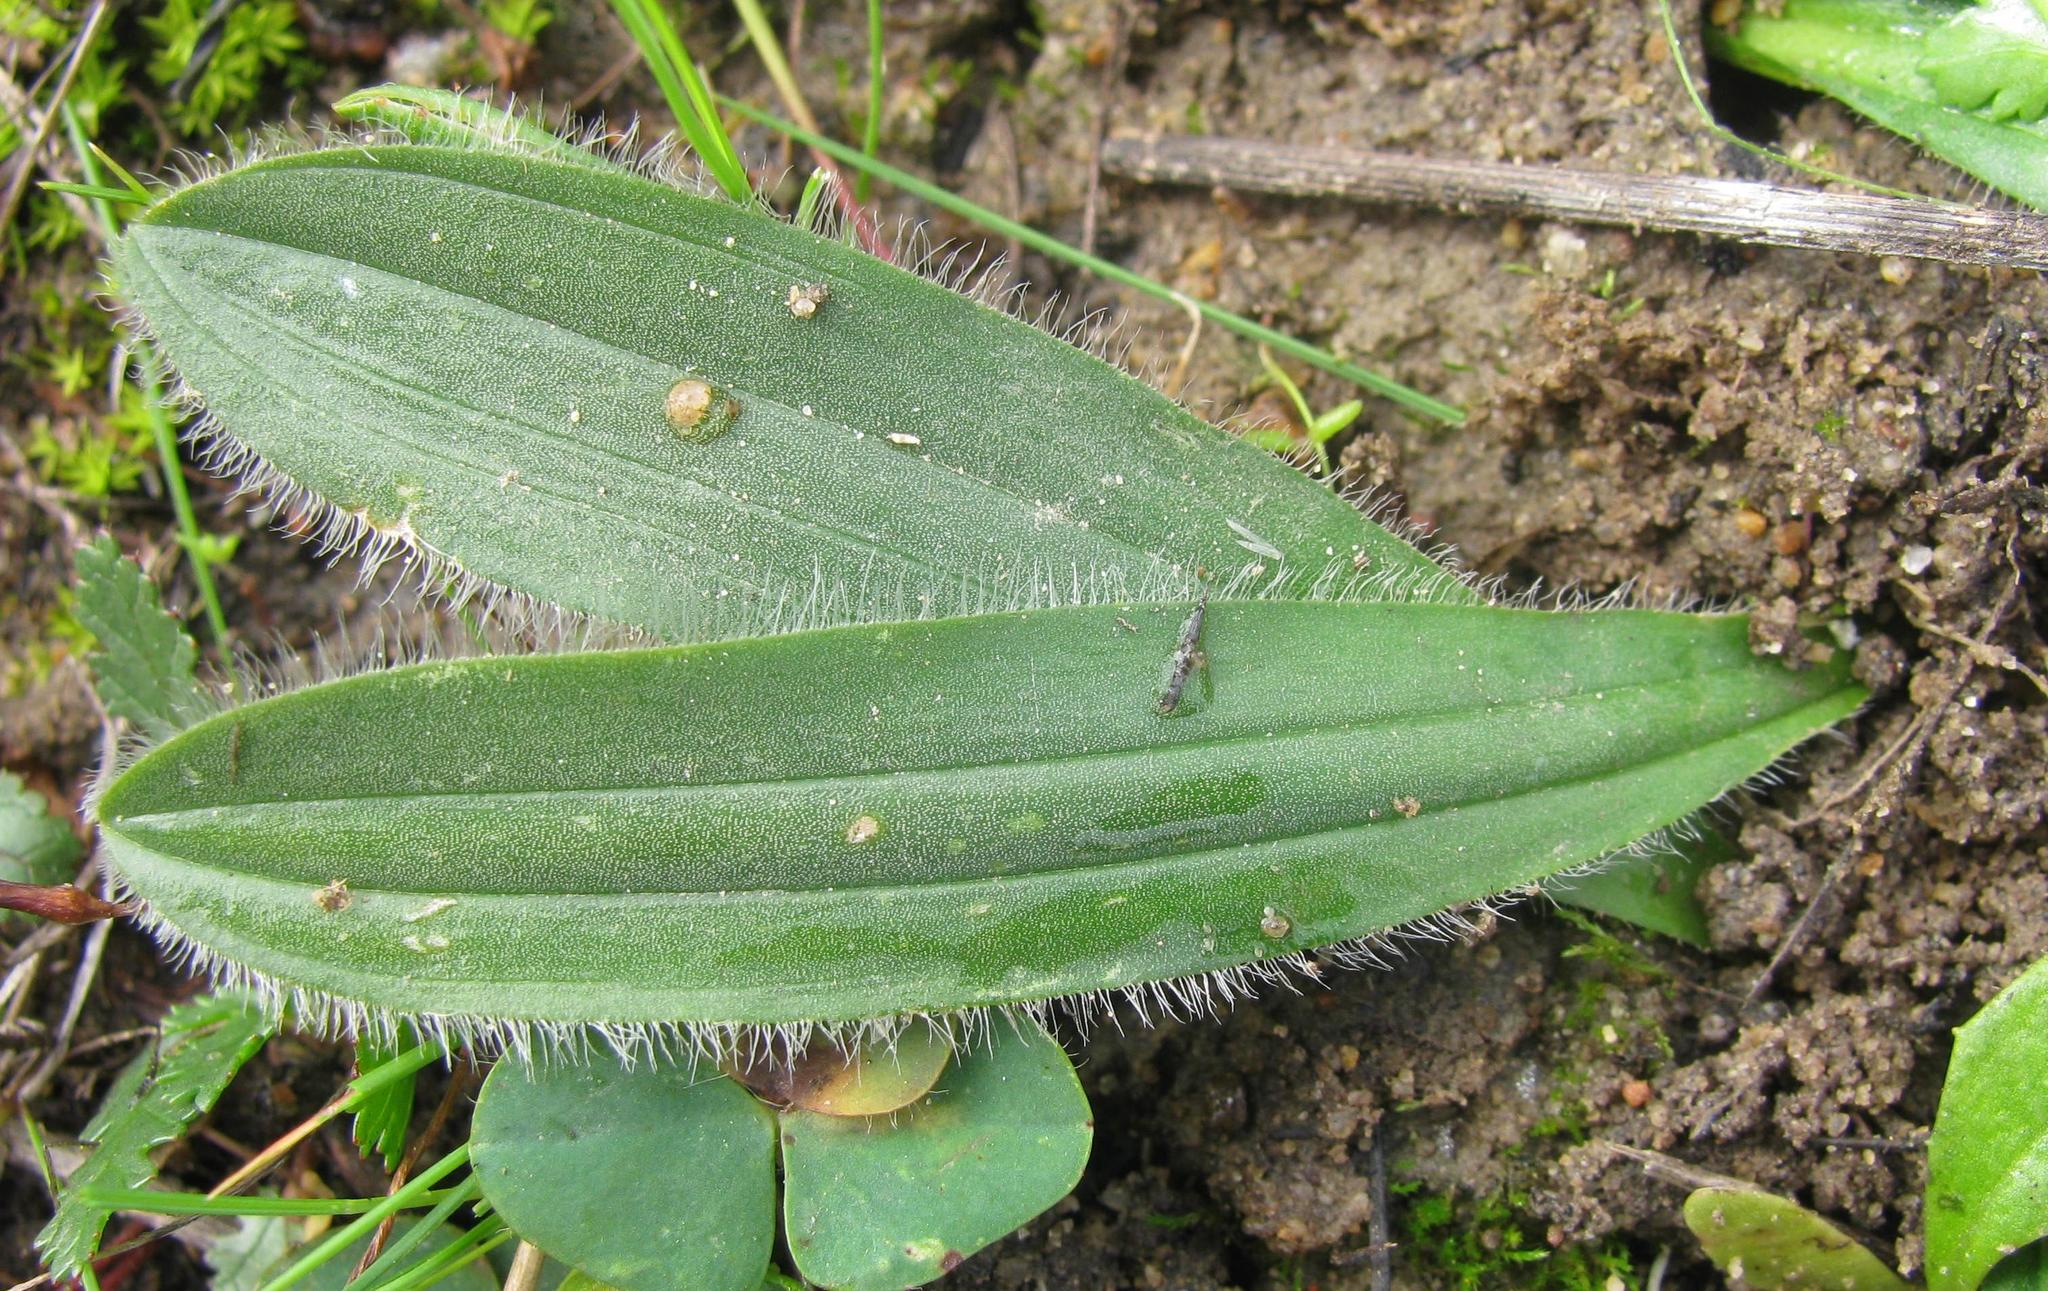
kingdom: Plantae
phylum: Tracheophyta
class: Liliopsida
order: Asparagales
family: Asparagaceae
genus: Drimia
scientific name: Drimia elata
